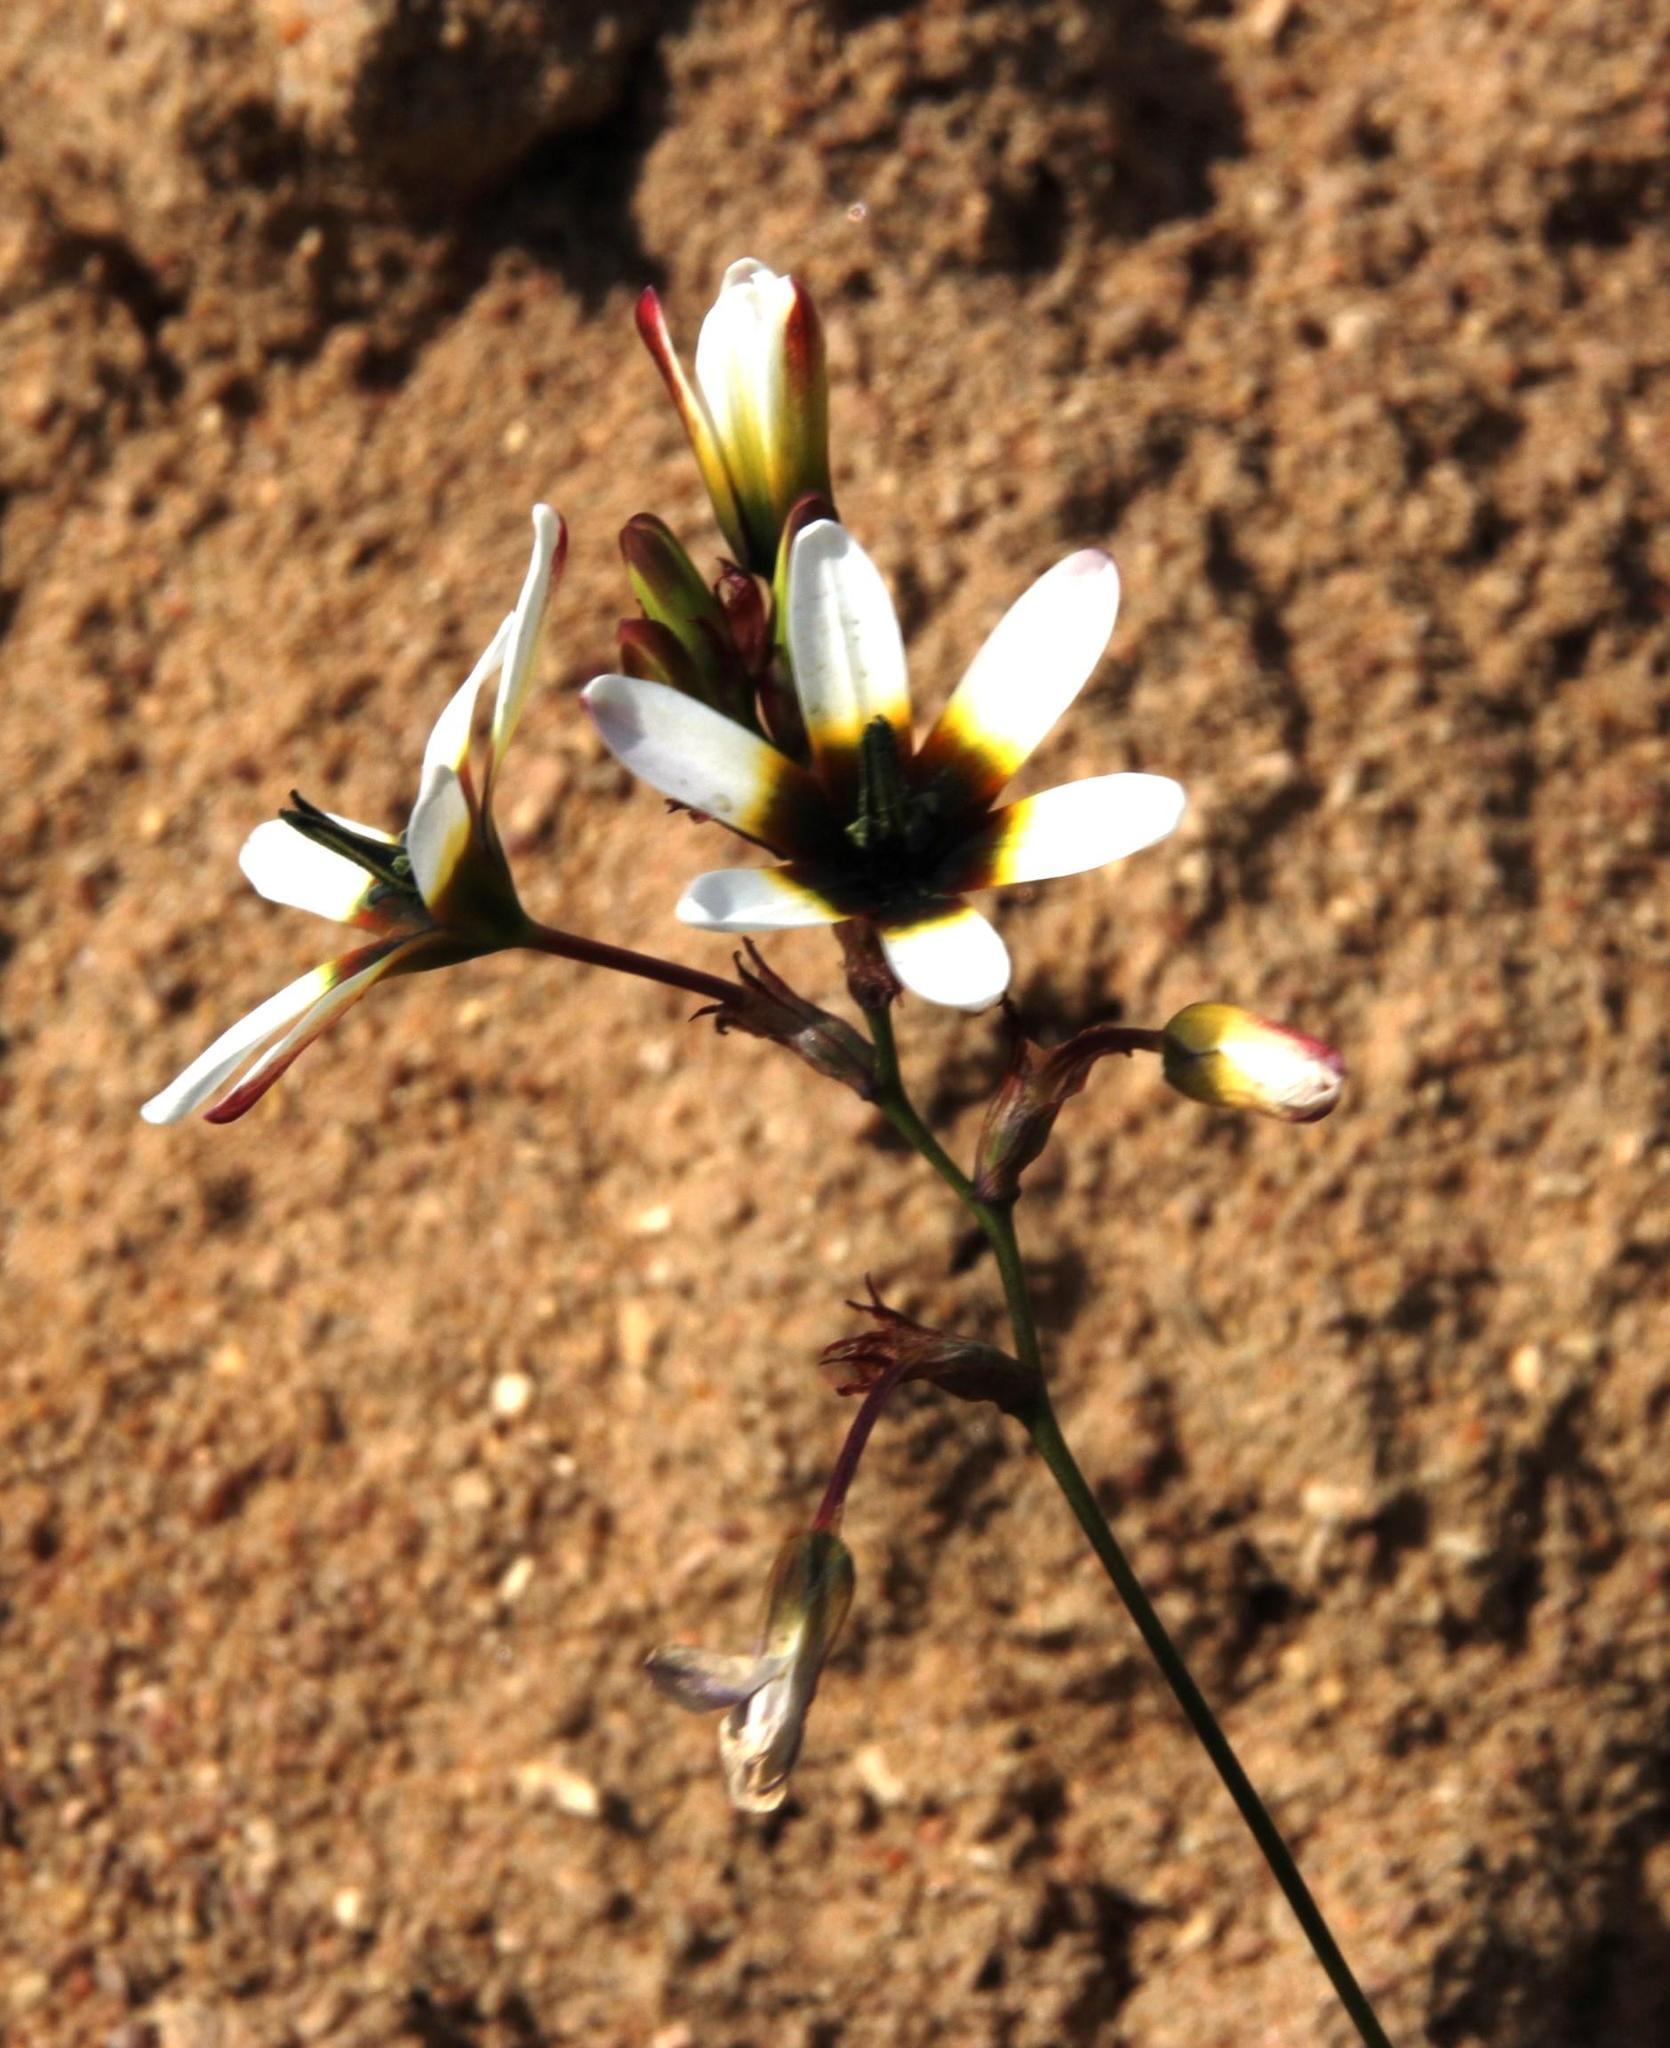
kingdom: Plantae
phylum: Tracheophyta
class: Liliopsida
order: Asparagales
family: Iridaceae
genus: Ixia
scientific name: Ixia monadelpha
